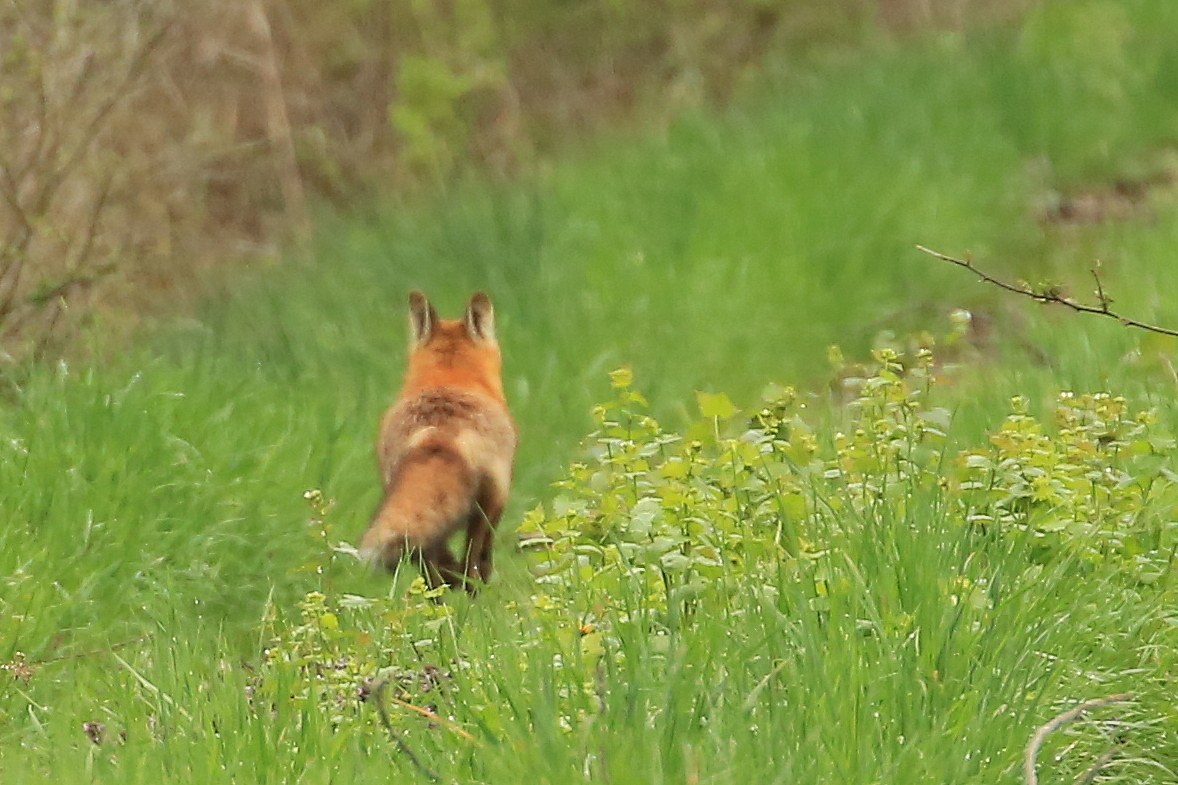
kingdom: Animalia
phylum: Chordata
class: Mammalia
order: Carnivora
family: Canidae
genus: Vulpes
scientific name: Vulpes vulpes
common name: Red fox
